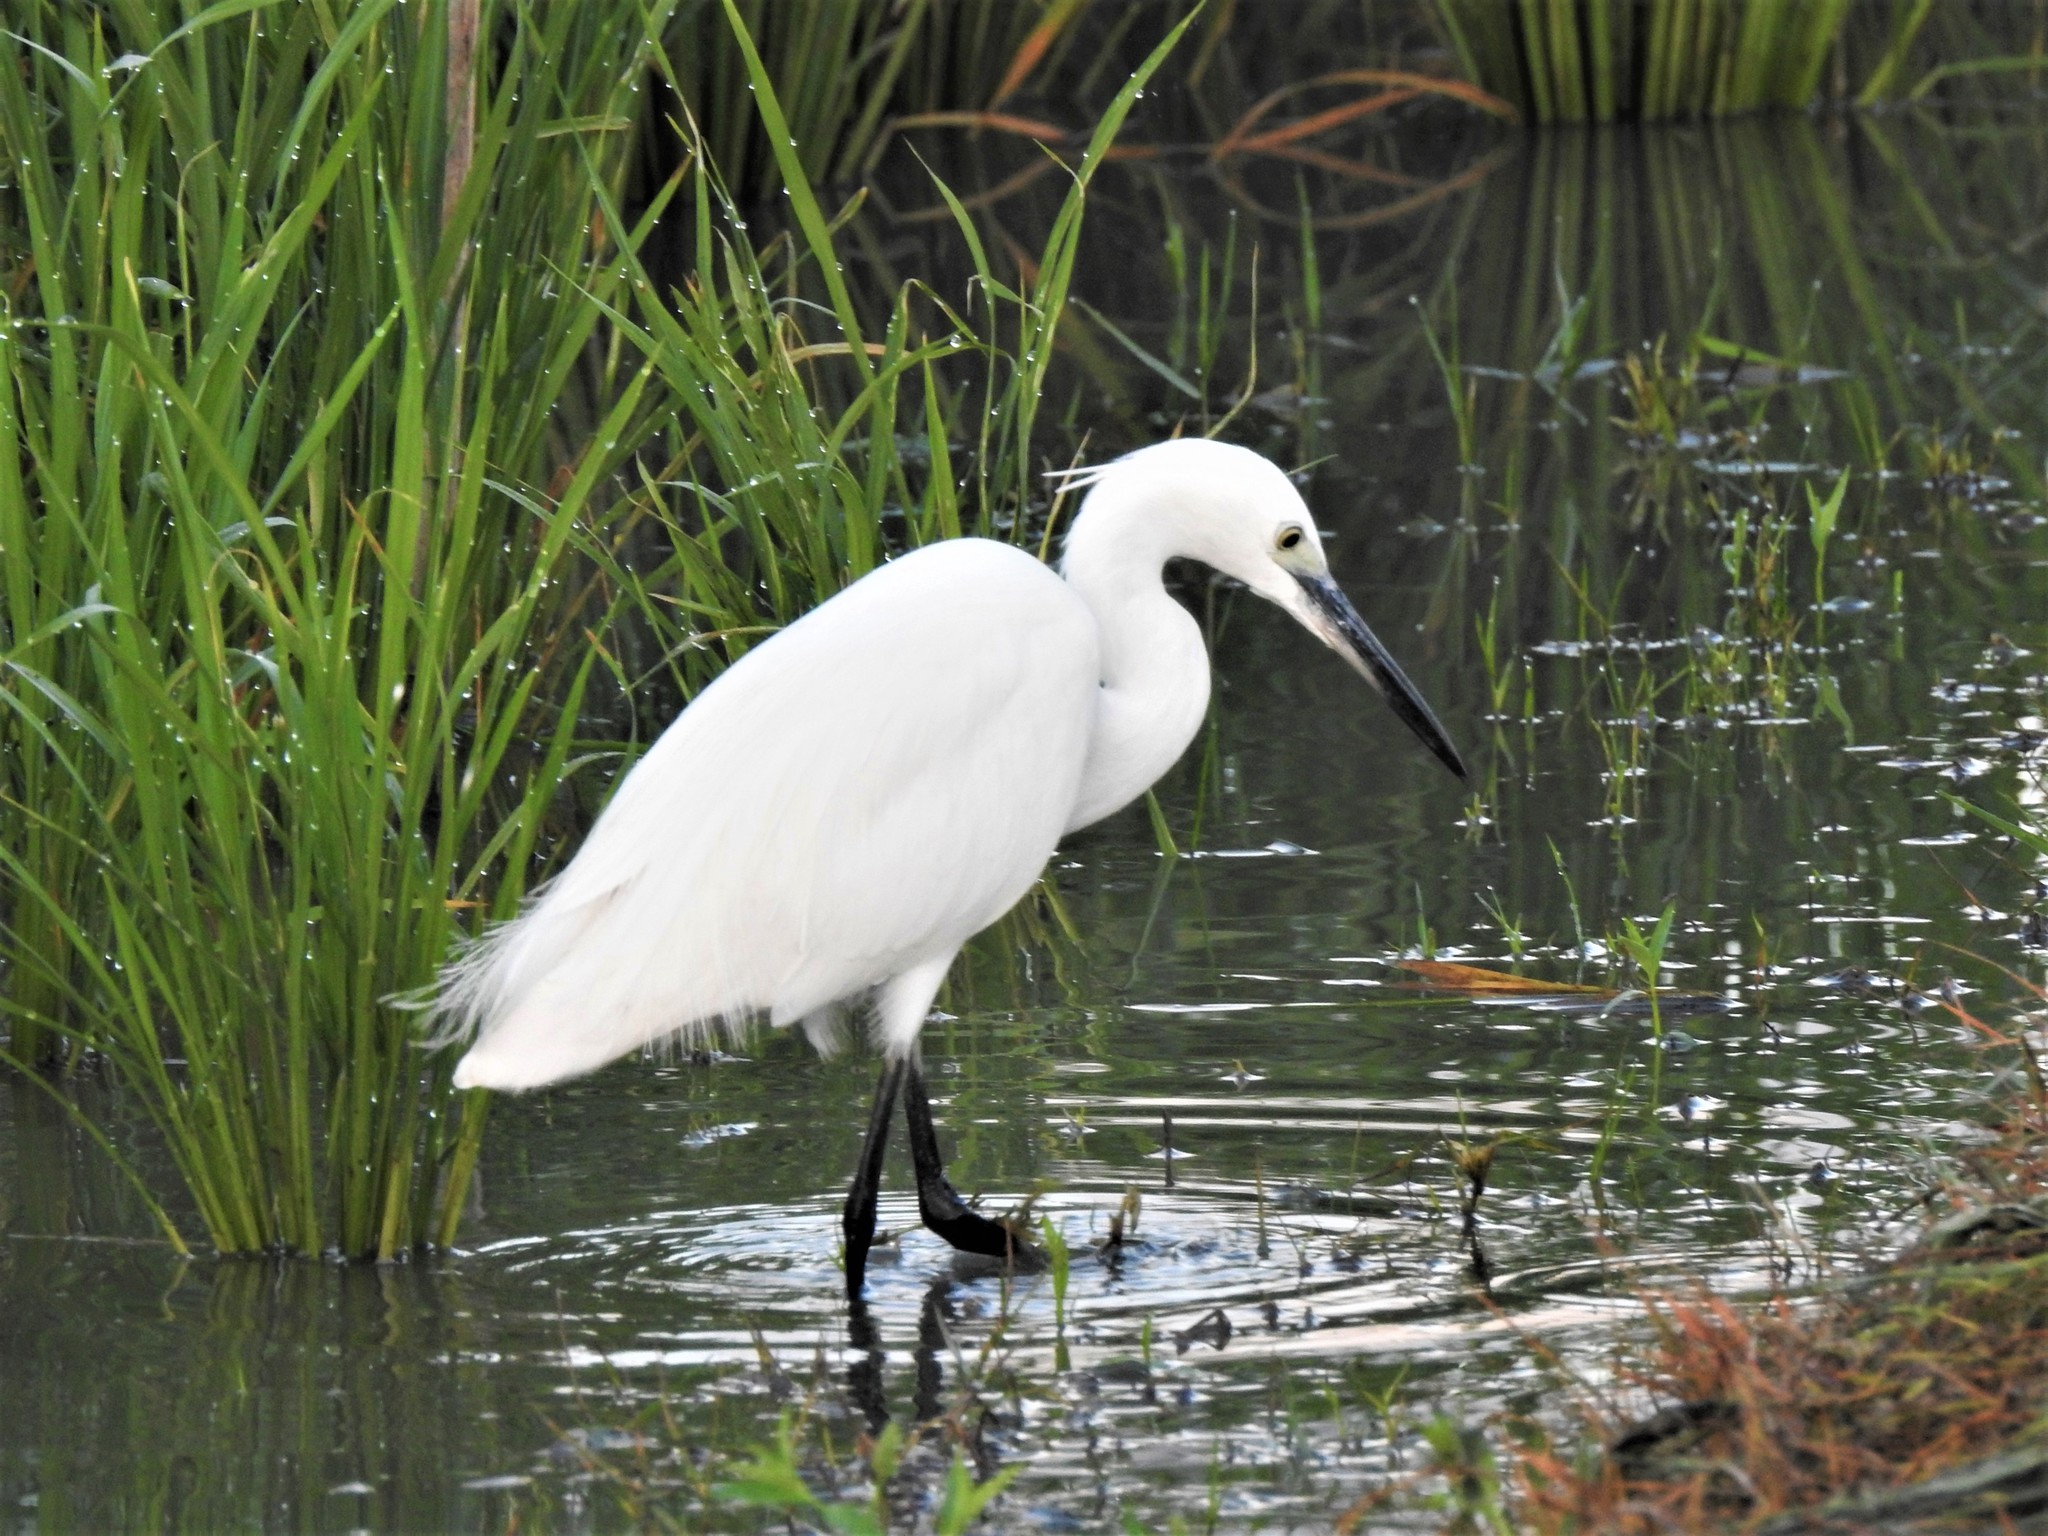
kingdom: Animalia
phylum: Chordata
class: Aves
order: Pelecaniformes
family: Ardeidae
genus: Egretta
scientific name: Egretta garzetta
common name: Little egret
